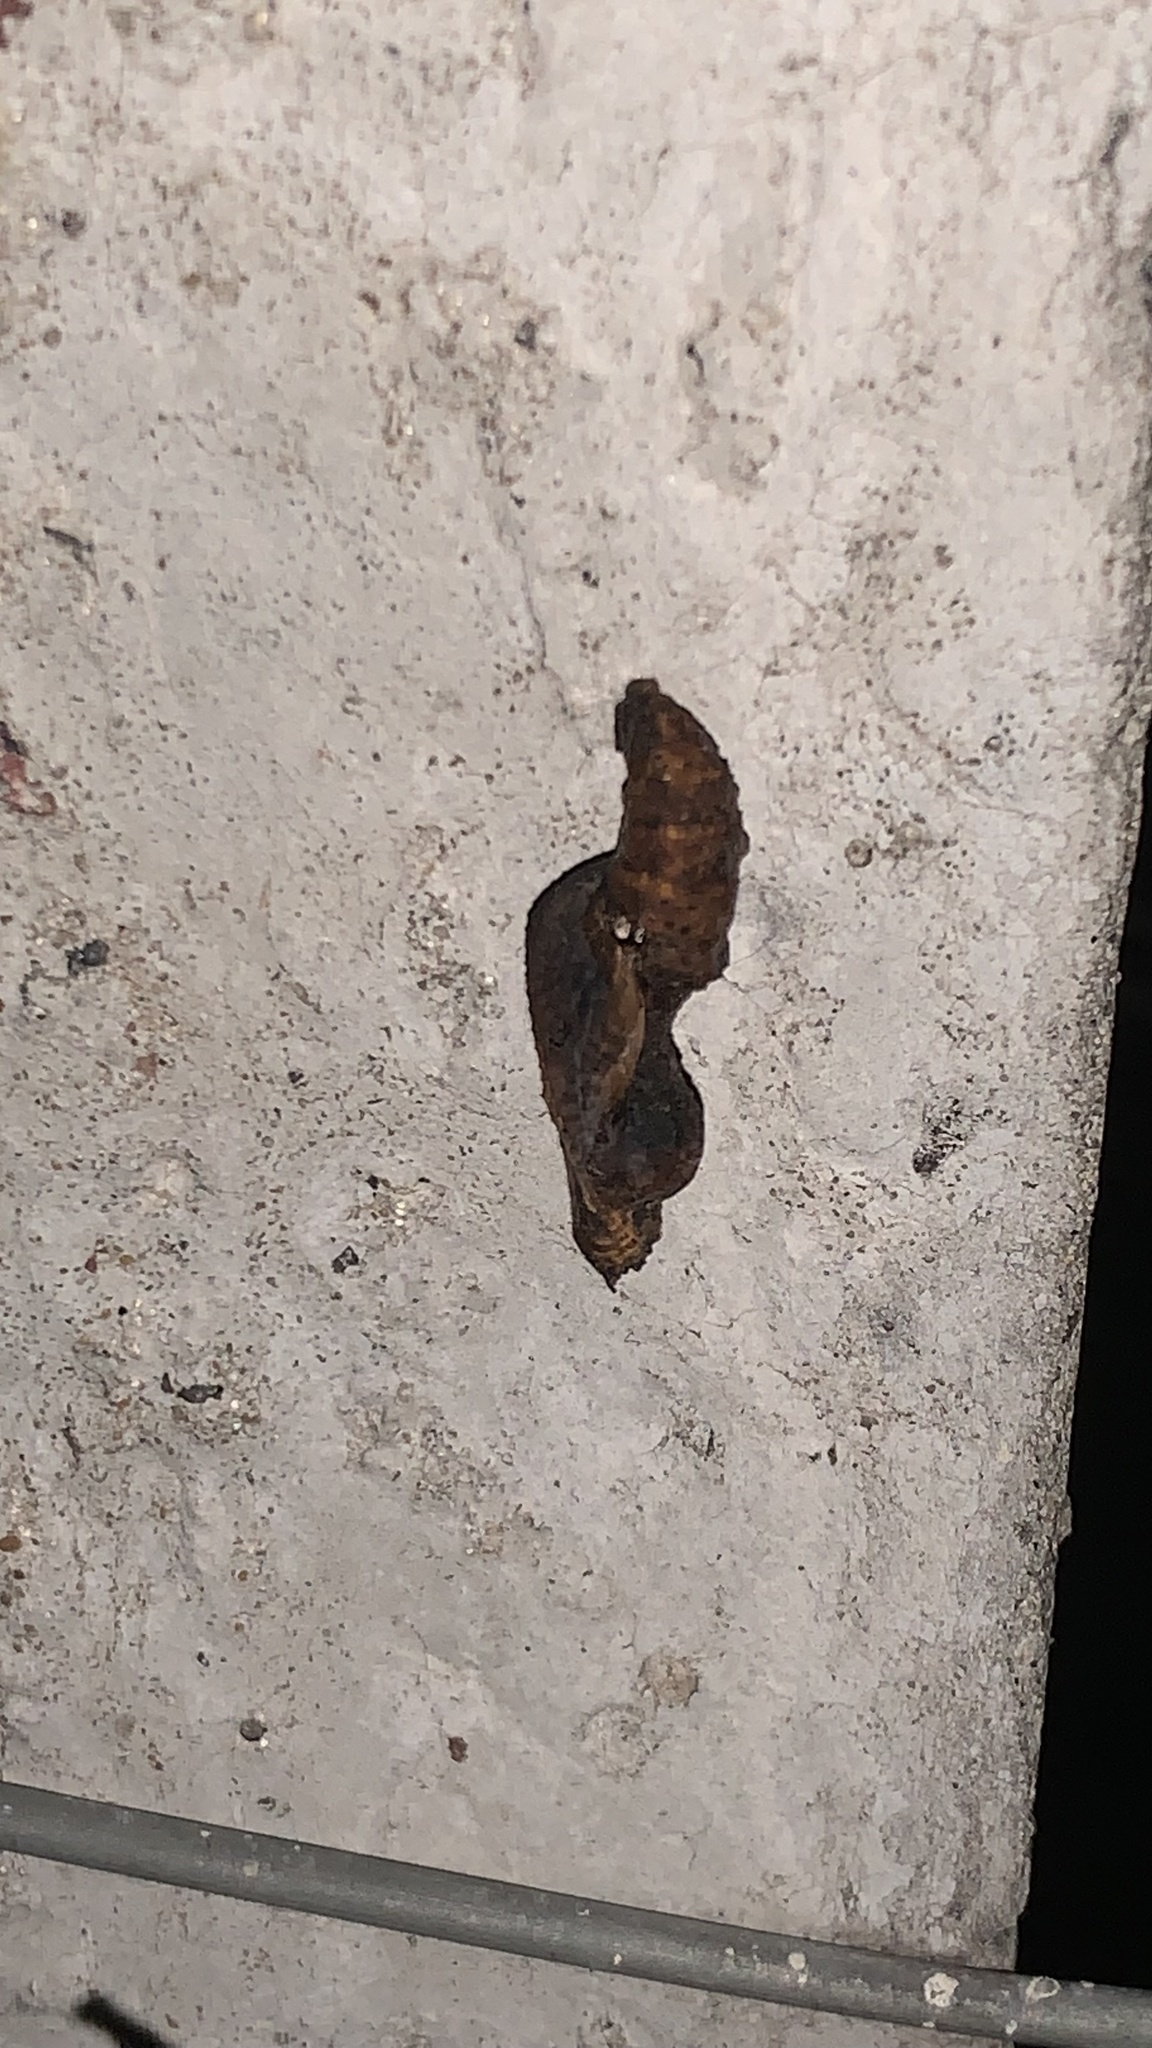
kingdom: Animalia
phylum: Arthropoda
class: Insecta
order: Lepidoptera
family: Nymphalidae
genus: Dione
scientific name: Dione vanillae
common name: Gulf fritillary
